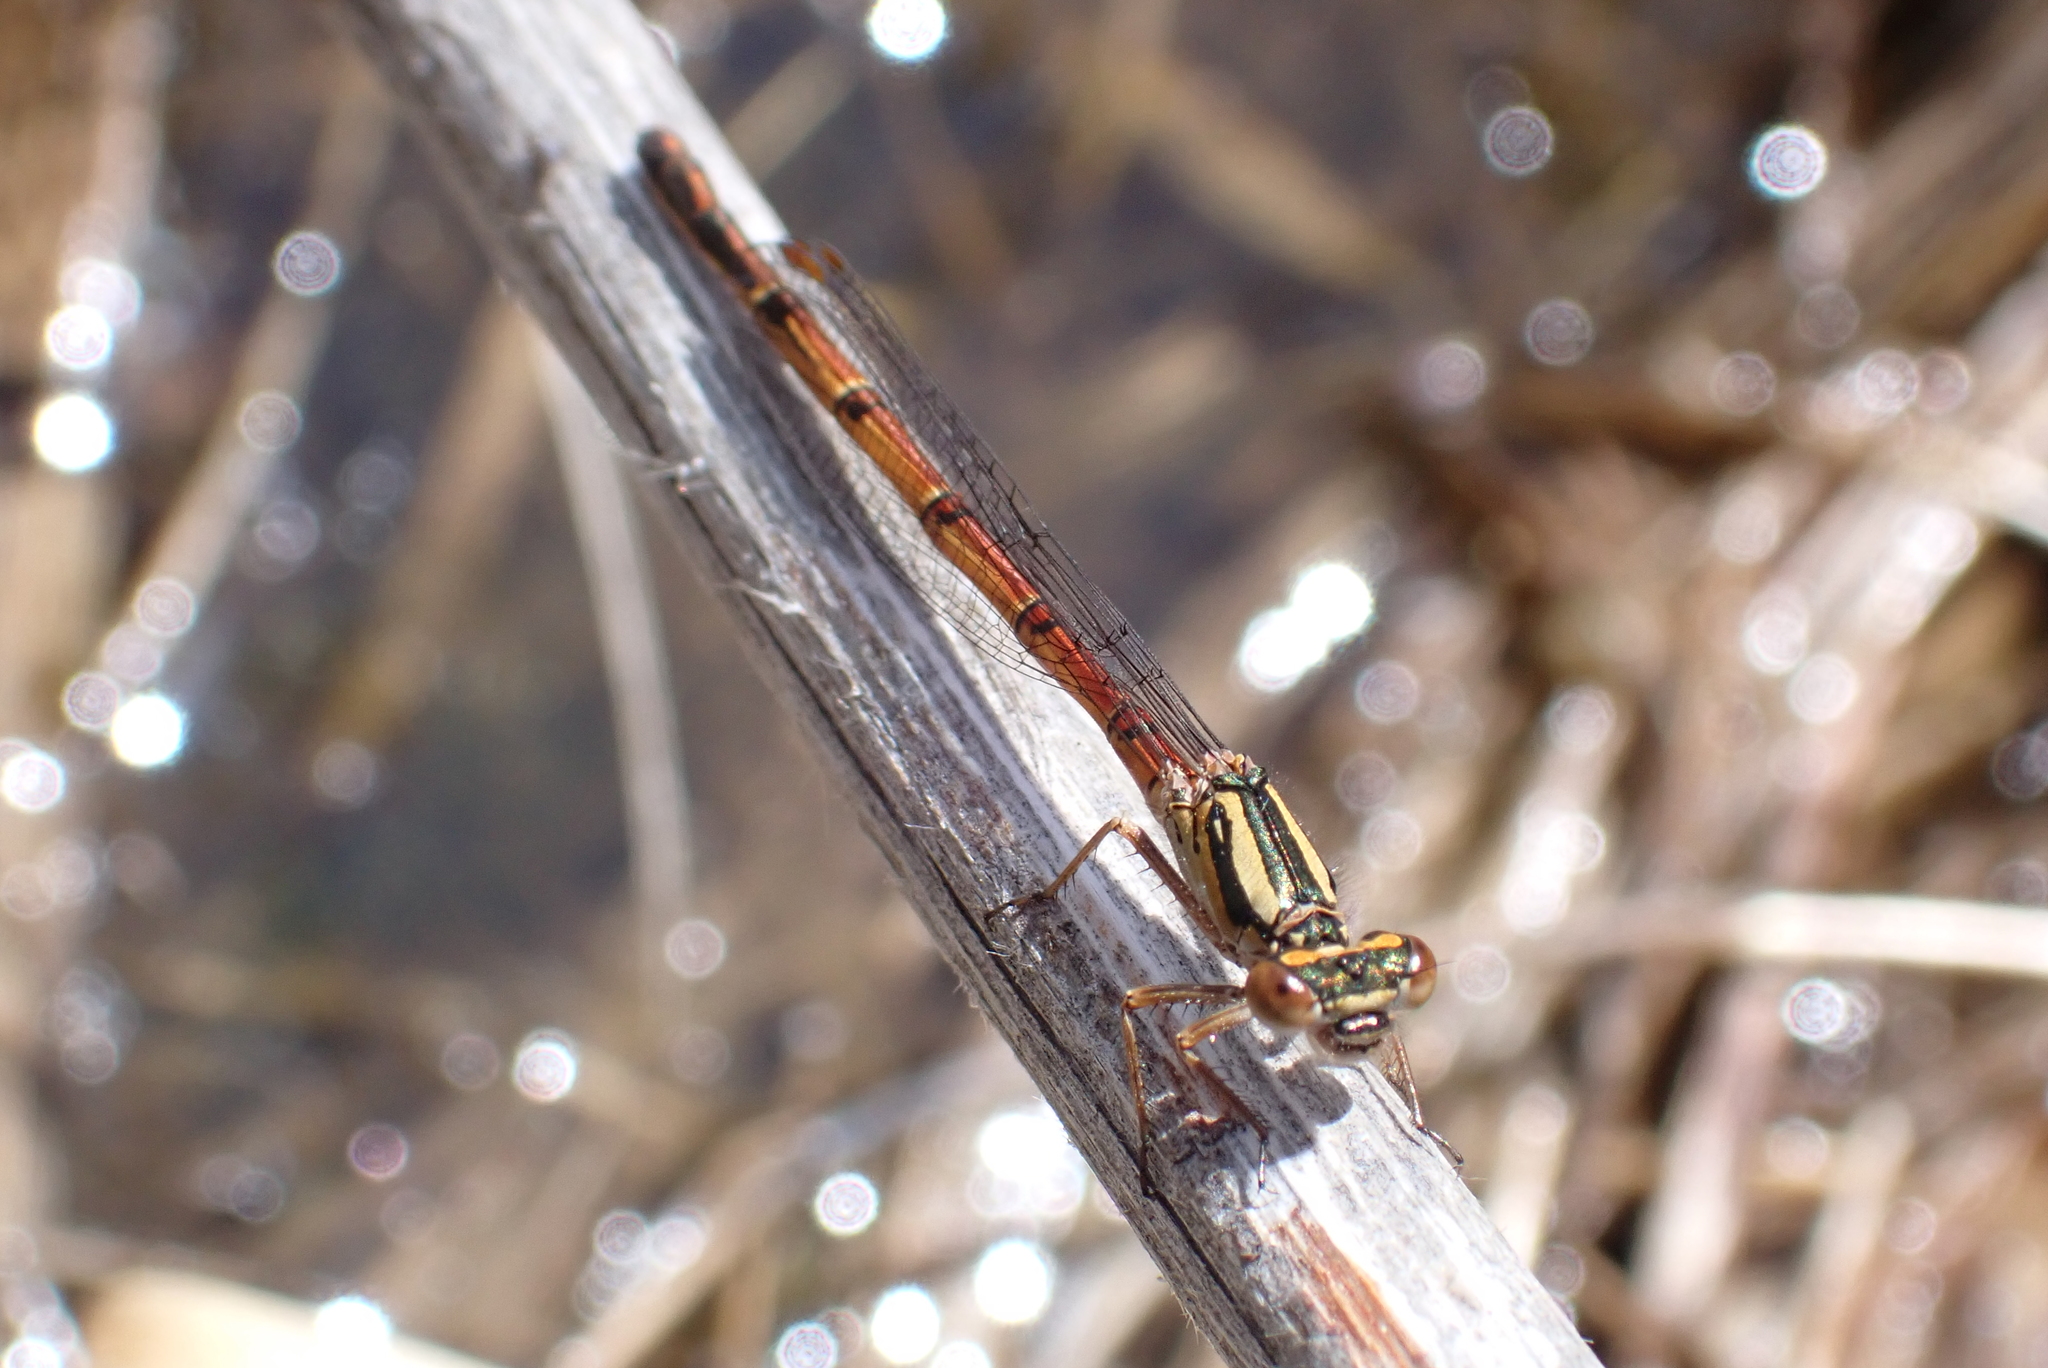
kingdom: Animalia
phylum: Arthropoda
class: Insecta
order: Odonata
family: Coenagrionidae
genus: Xanthocnemis
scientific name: Xanthocnemis zealandica
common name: Common redcoat damselfly
